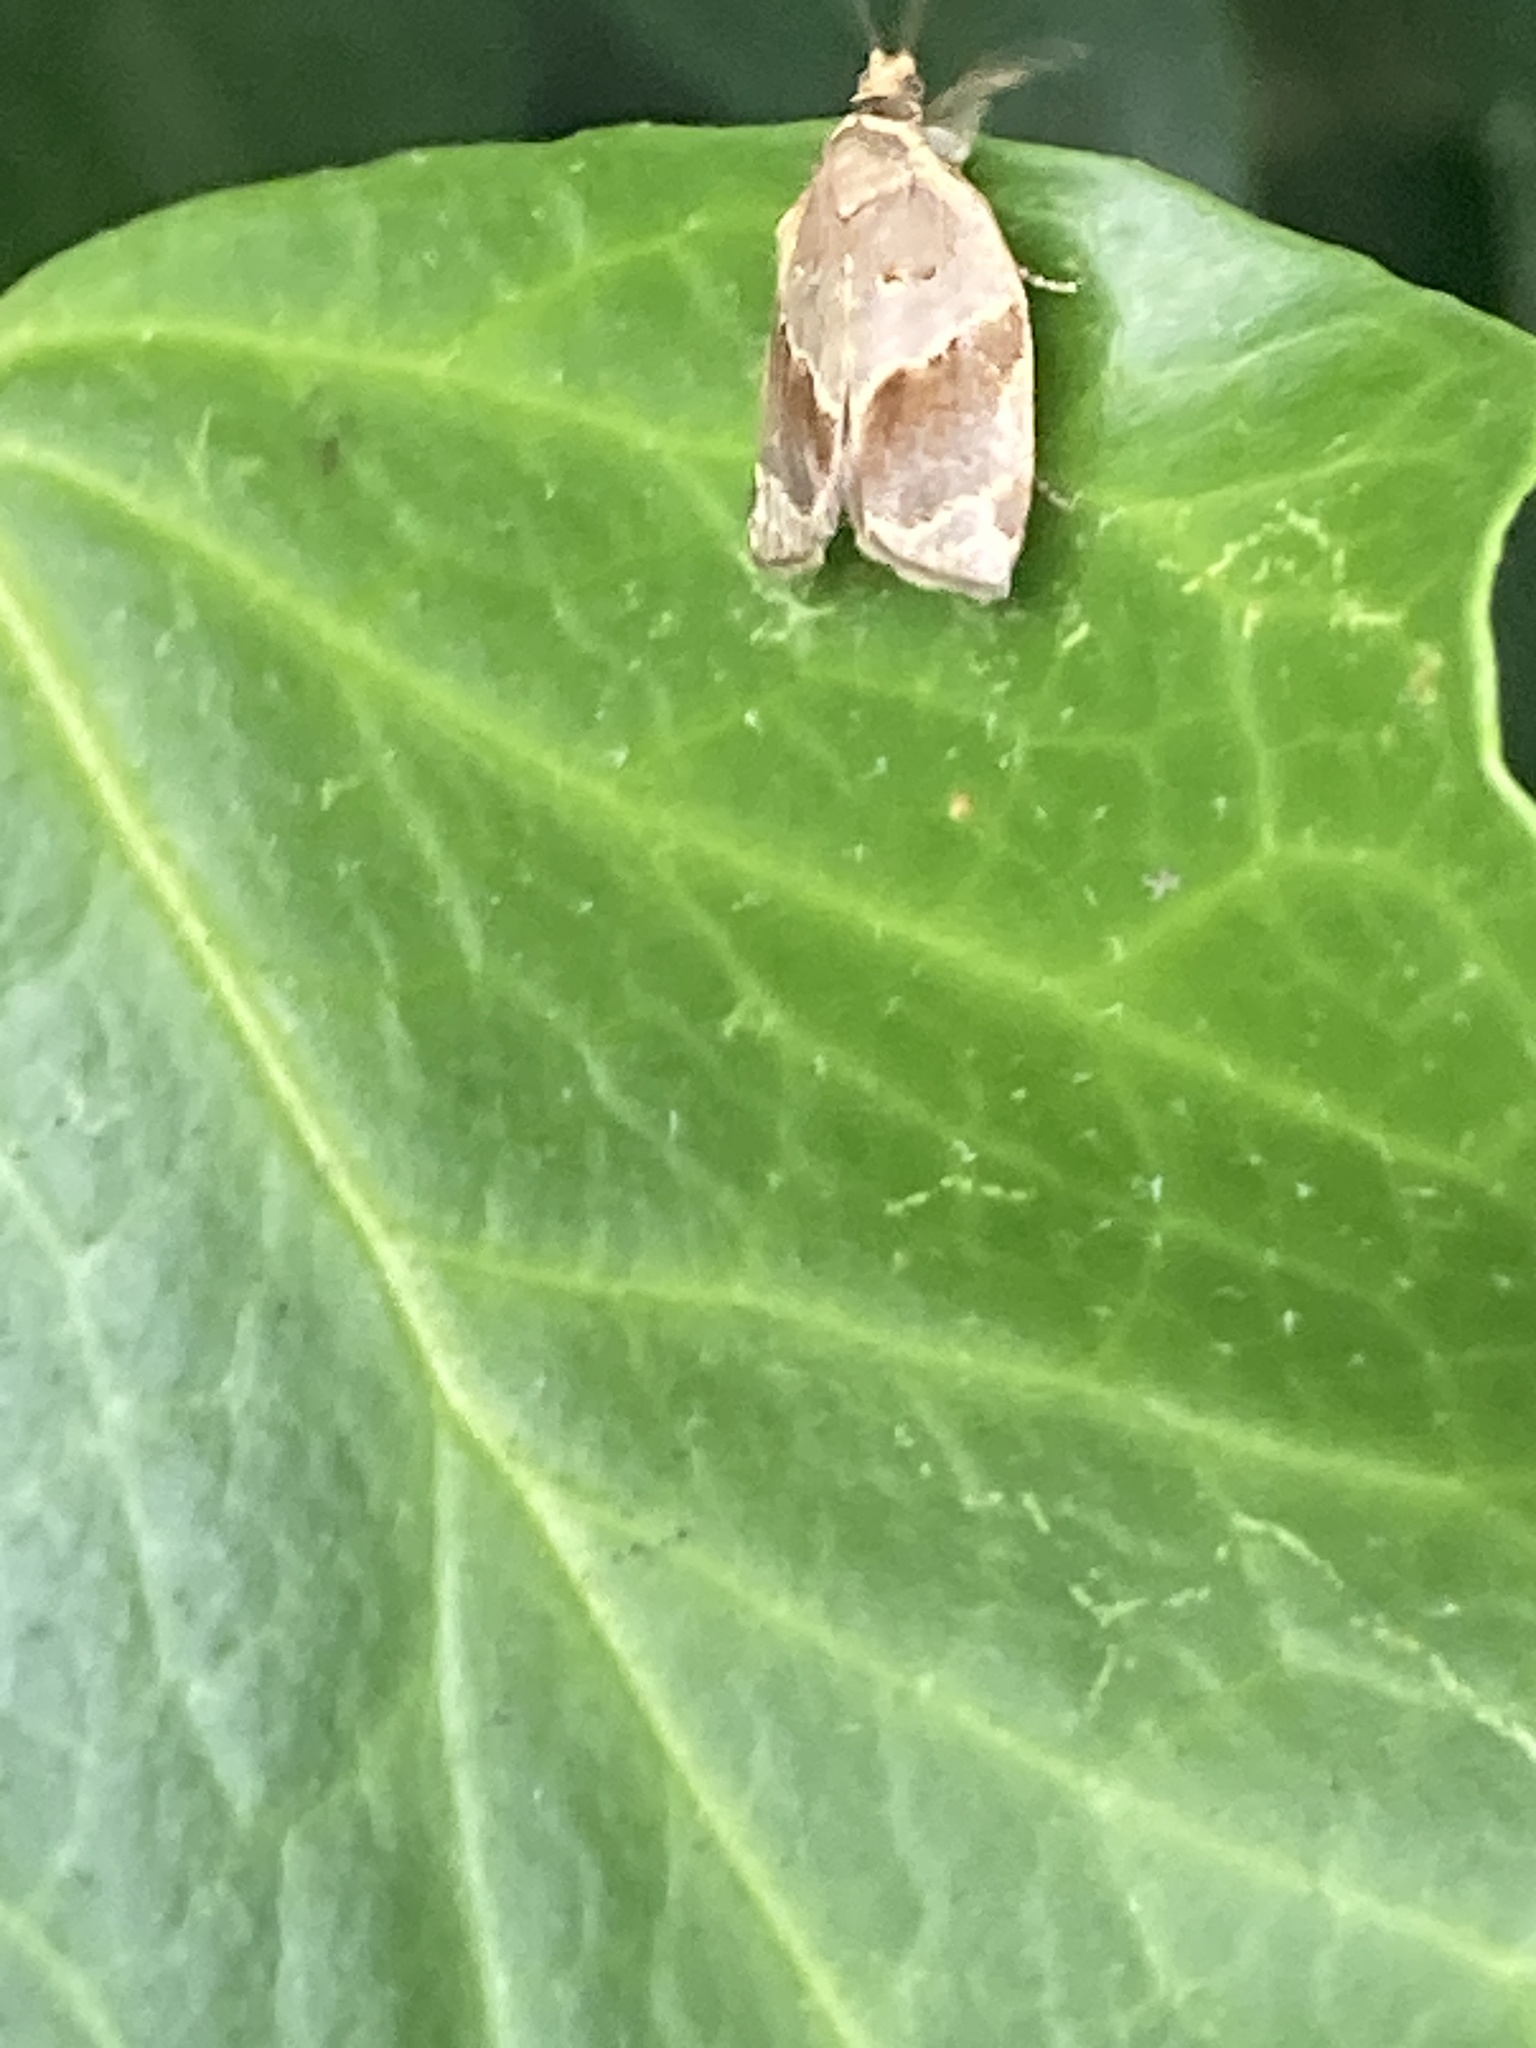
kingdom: Animalia
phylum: Arthropoda
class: Insecta
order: Lepidoptera
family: Tortricidae
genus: Clepsis
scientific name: Clepsis dumicolana
